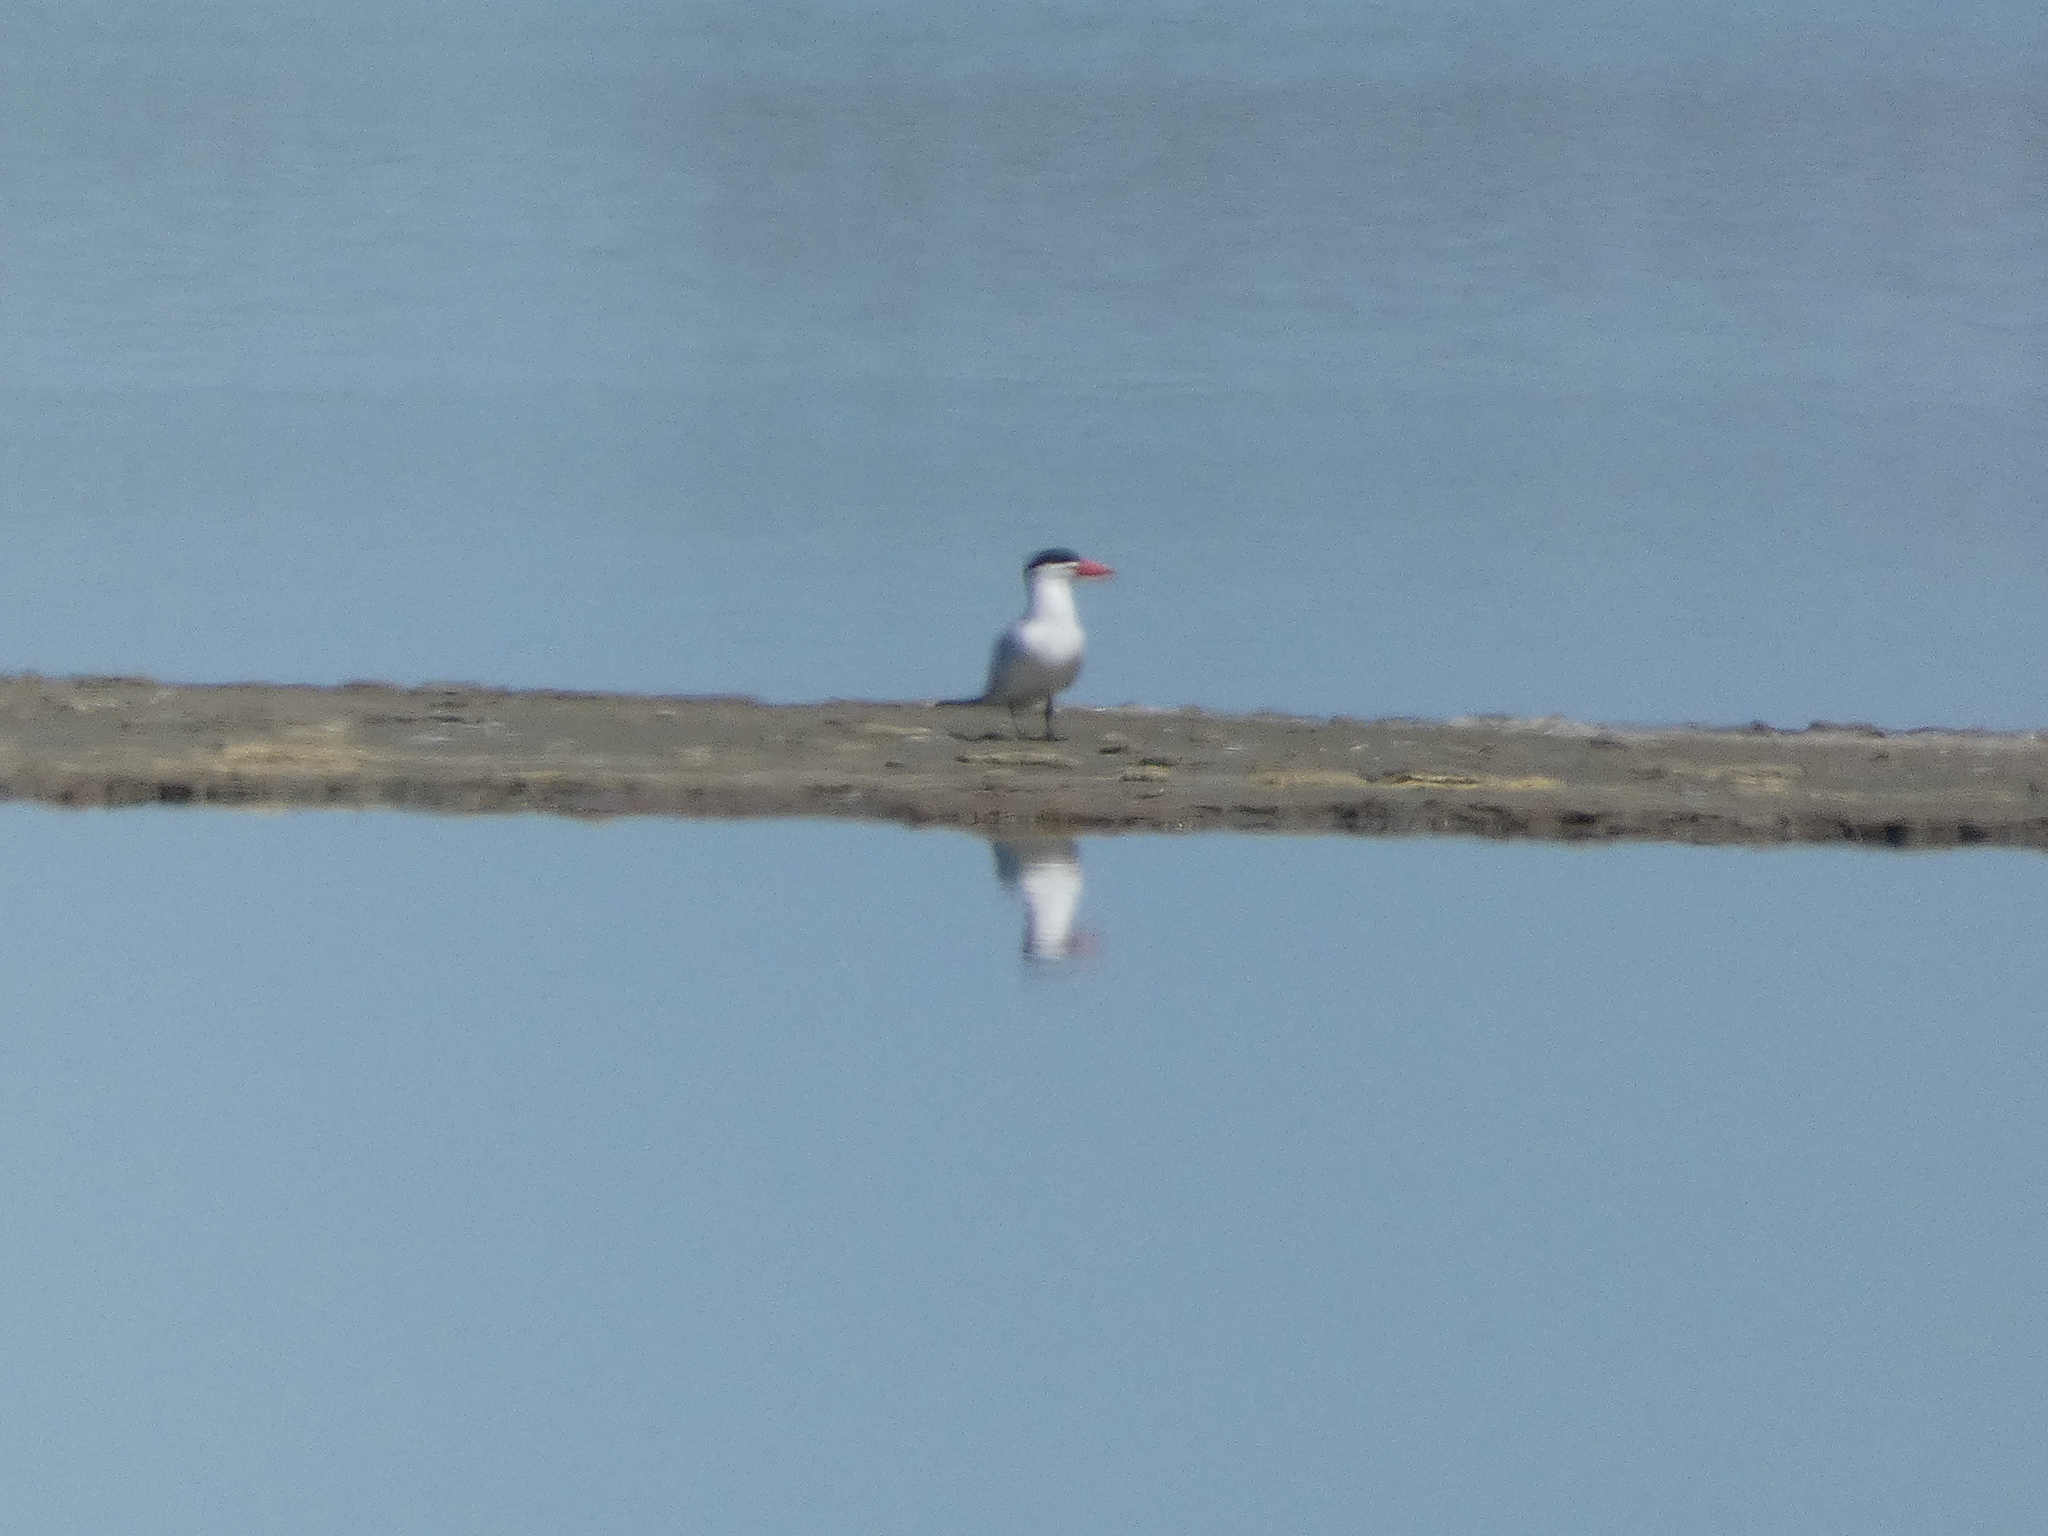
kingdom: Animalia
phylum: Chordata
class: Aves
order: Charadriiformes
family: Laridae
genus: Hydroprogne
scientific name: Hydroprogne caspia
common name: Caspian tern
